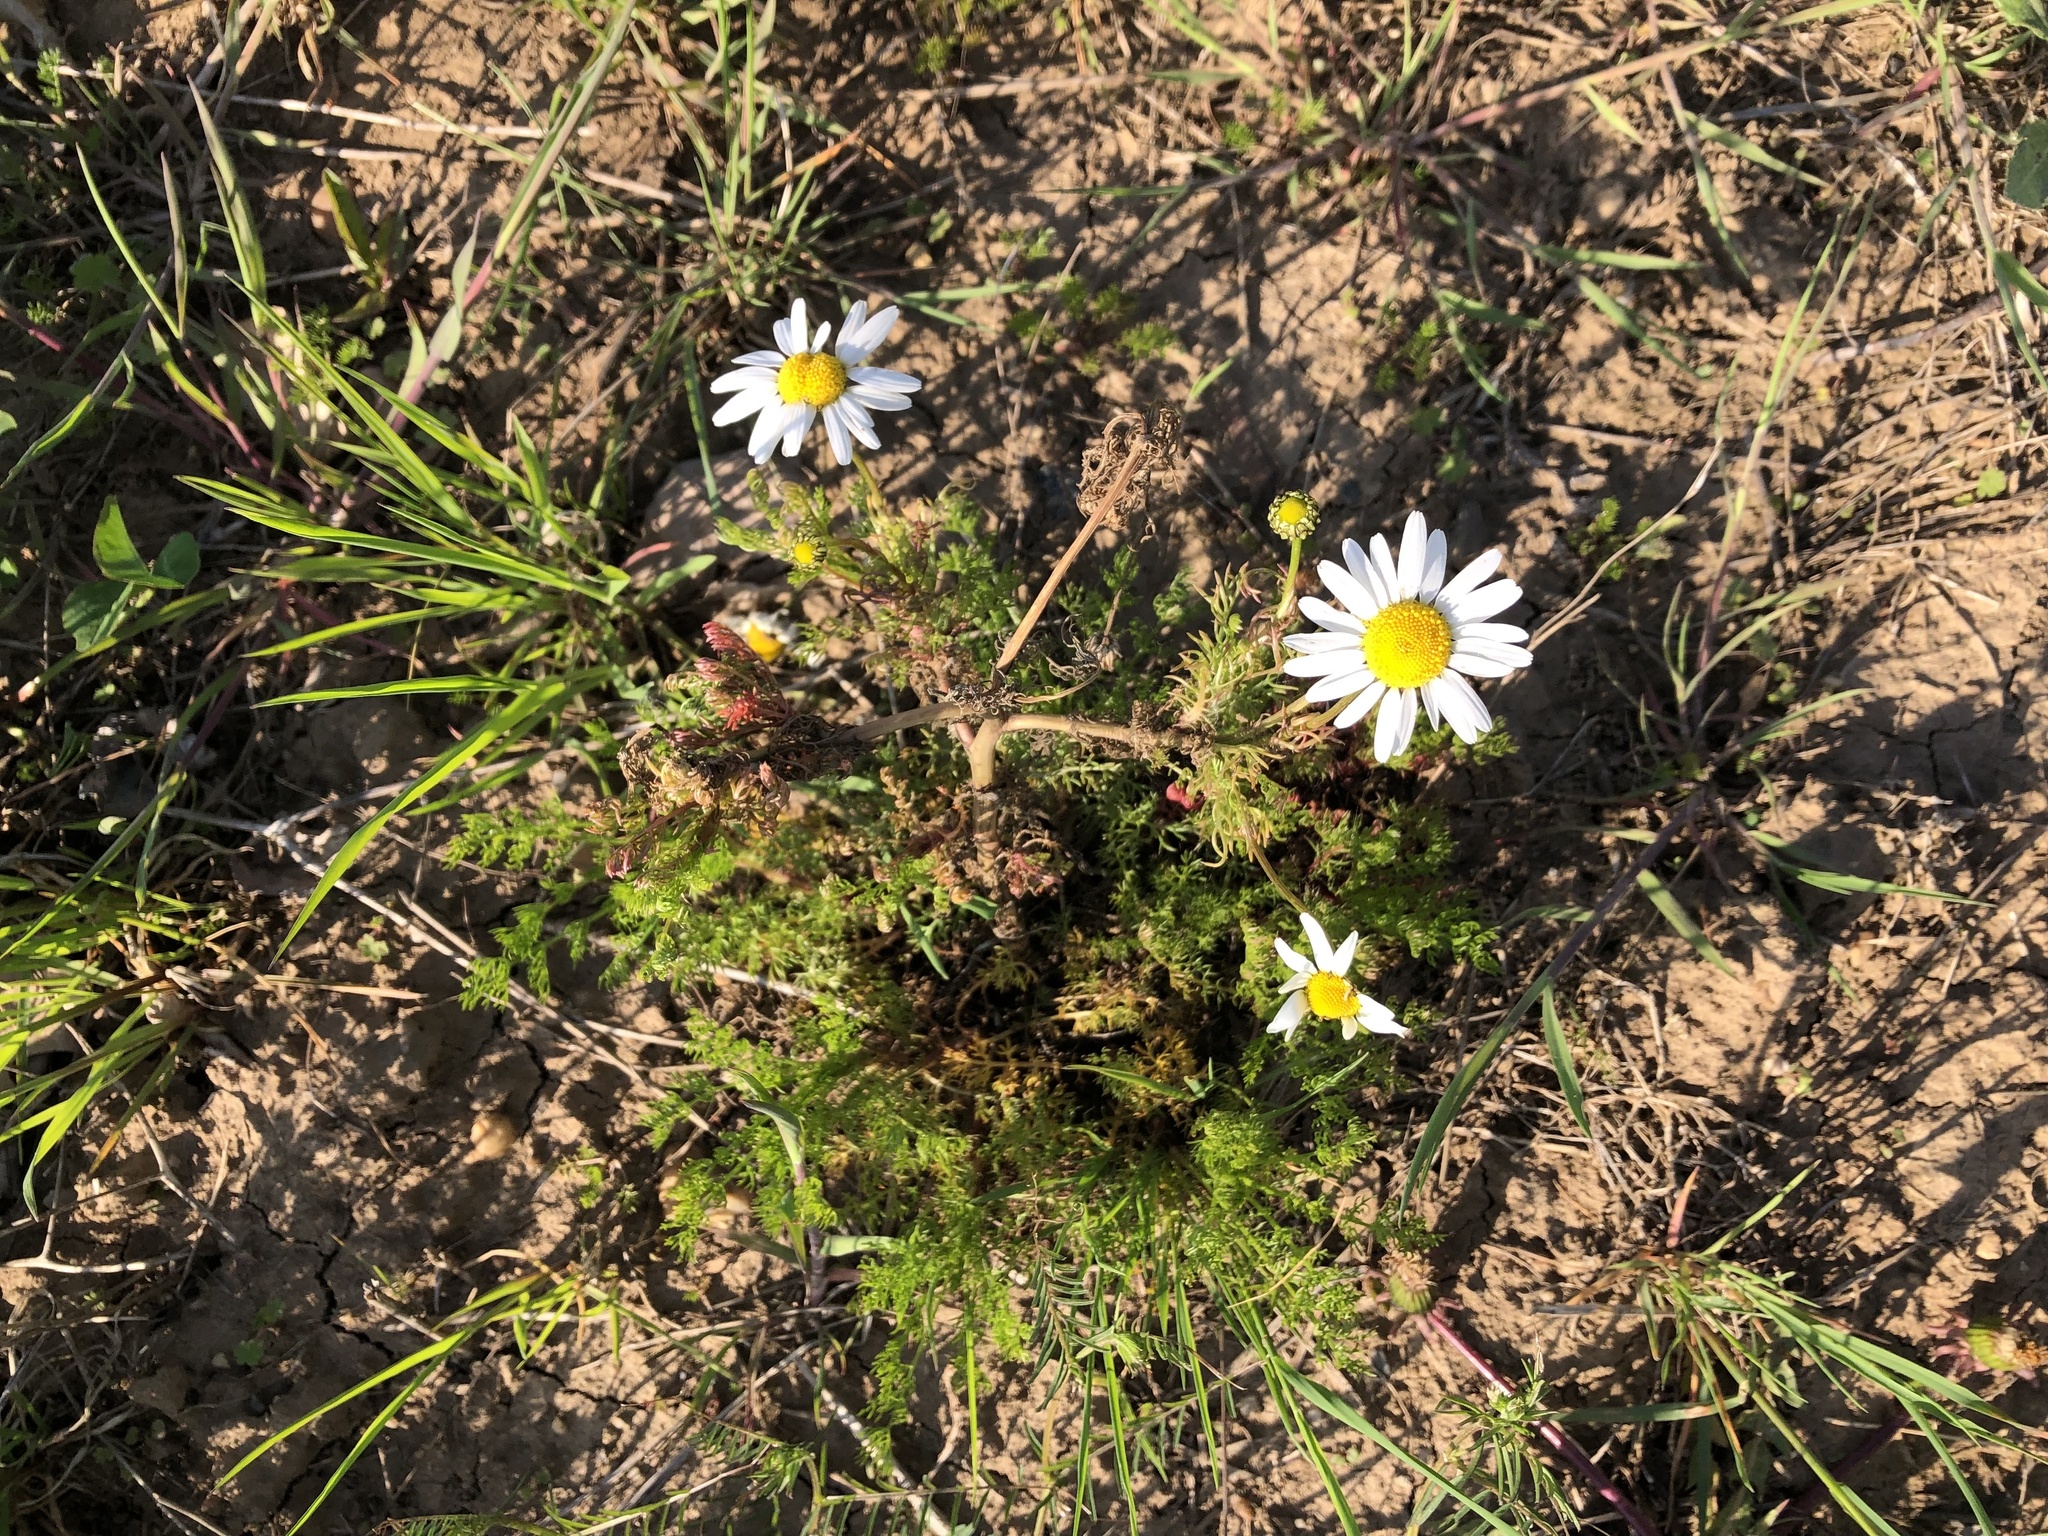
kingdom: Plantae
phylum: Tracheophyta
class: Magnoliopsida
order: Asterales
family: Asteraceae
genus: Tripleurospermum
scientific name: Tripleurospermum inodorum
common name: Scentless mayweed
